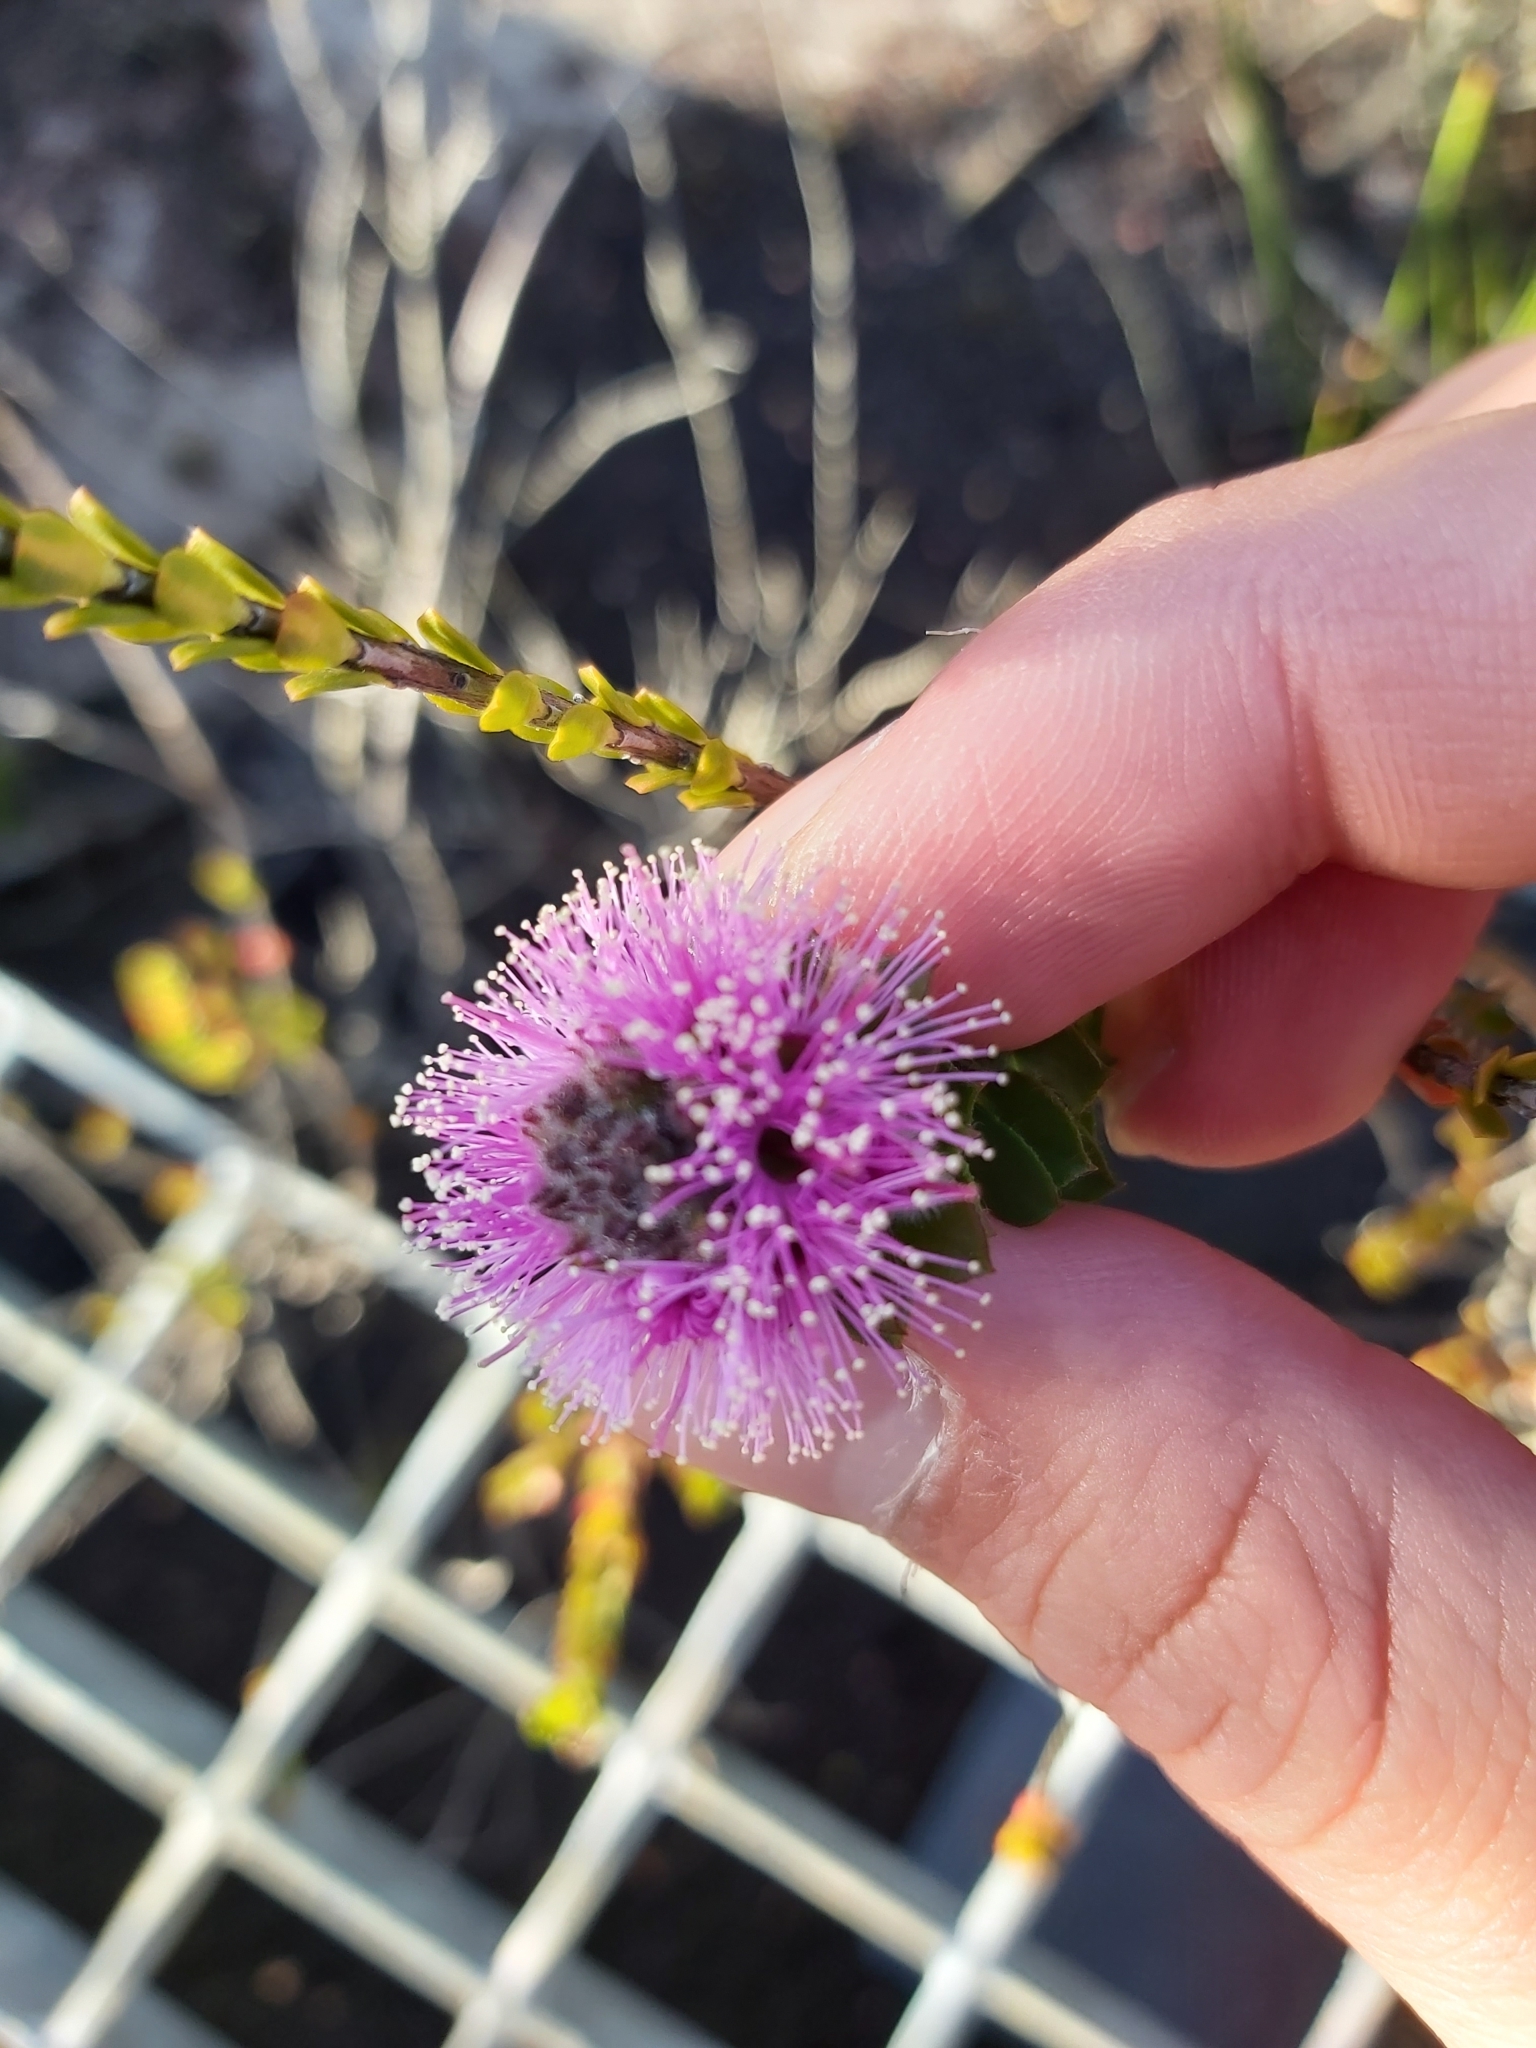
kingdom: Plantae
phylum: Tracheophyta
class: Magnoliopsida
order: Myrtales
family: Myrtaceae
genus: Kunzea
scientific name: Kunzea capitata
